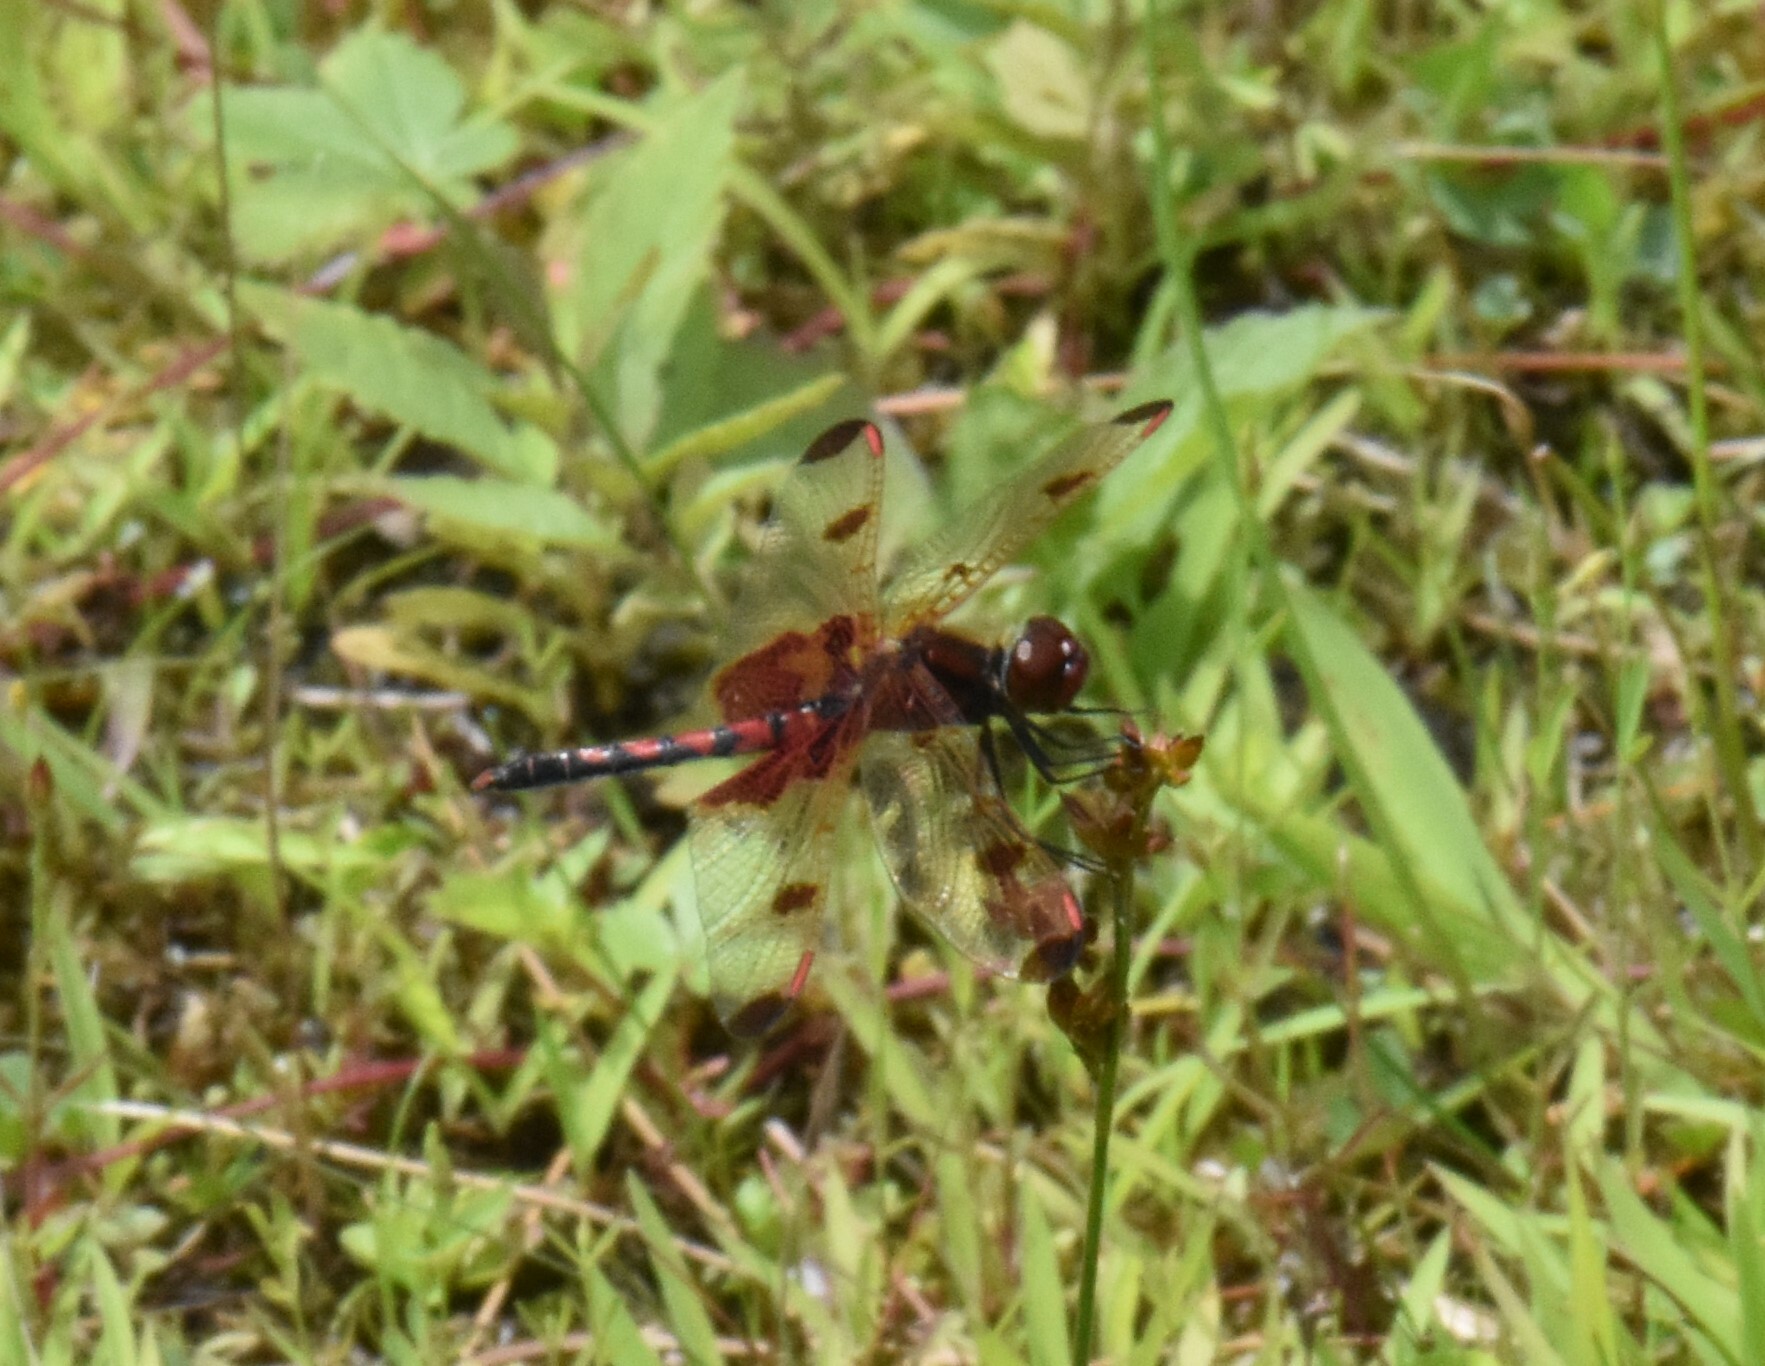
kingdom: Animalia
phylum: Arthropoda
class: Insecta
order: Odonata
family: Libellulidae
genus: Celithemis
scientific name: Celithemis elisa
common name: Calico pennant
